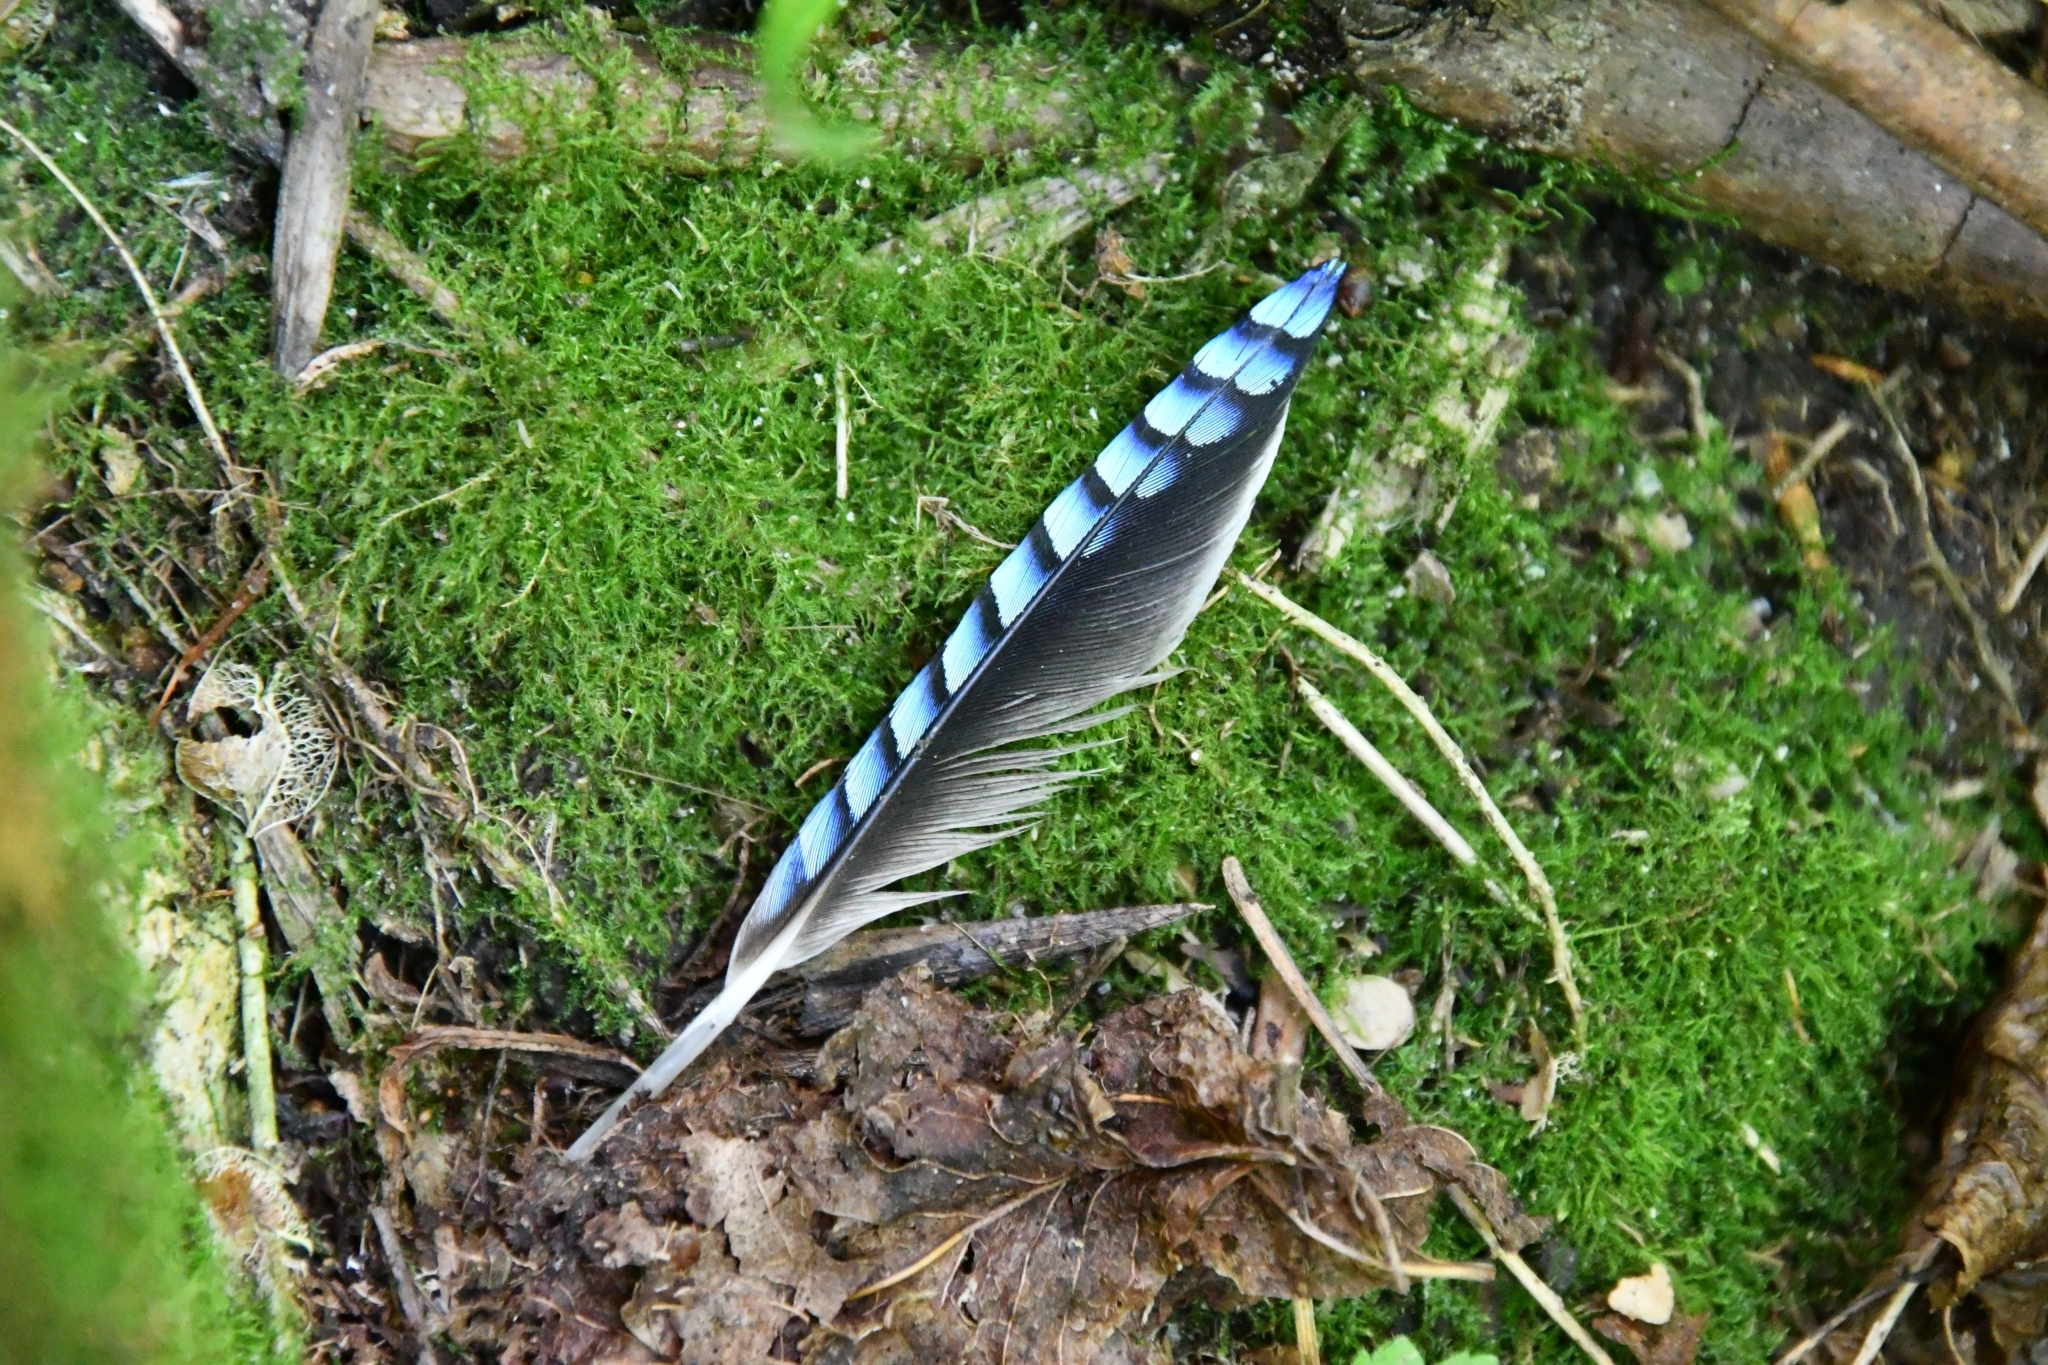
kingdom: Animalia
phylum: Chordata
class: Aves
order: Passeriformes
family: Corvidae
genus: Garrulus
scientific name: Garrulus glandarius
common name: Eurasian jay
